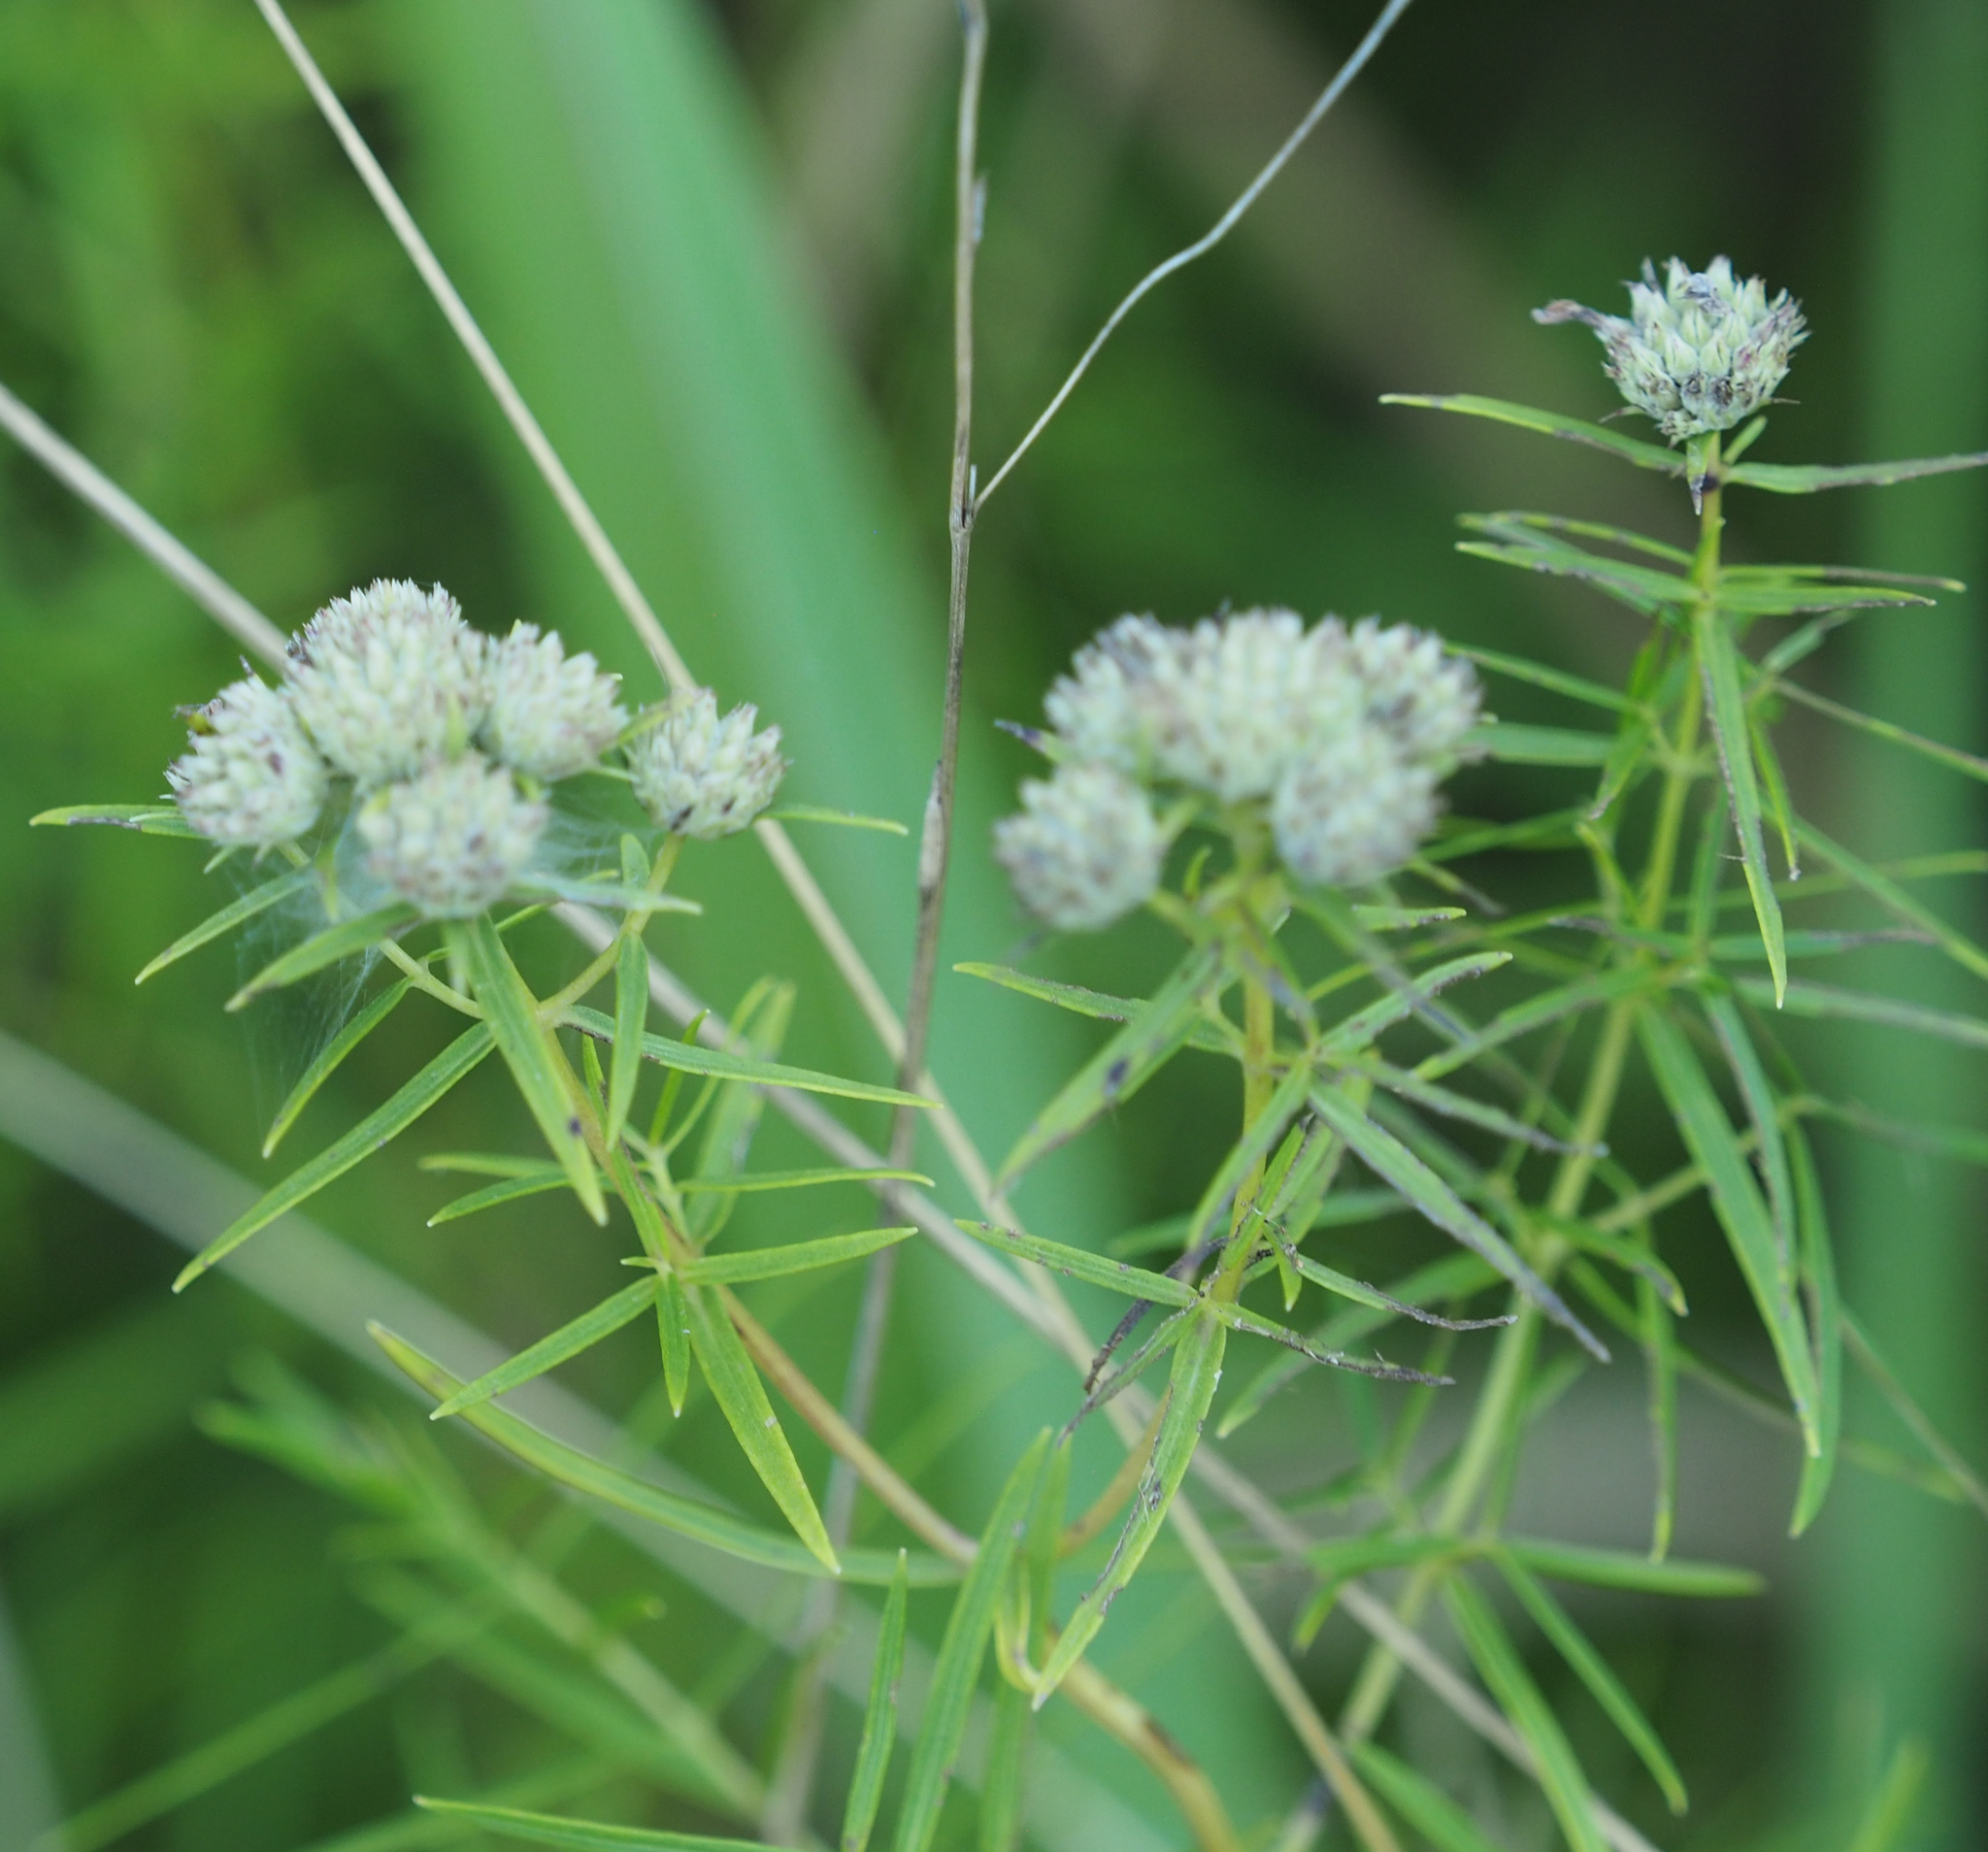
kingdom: Plantae
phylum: Tracheophyta
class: Magnoliopsida
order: Lamiales
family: Lamiaceae
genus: Pycnanthemum
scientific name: Pycnanthemum tenuifolium
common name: Narrow-leaf mountain-mint
